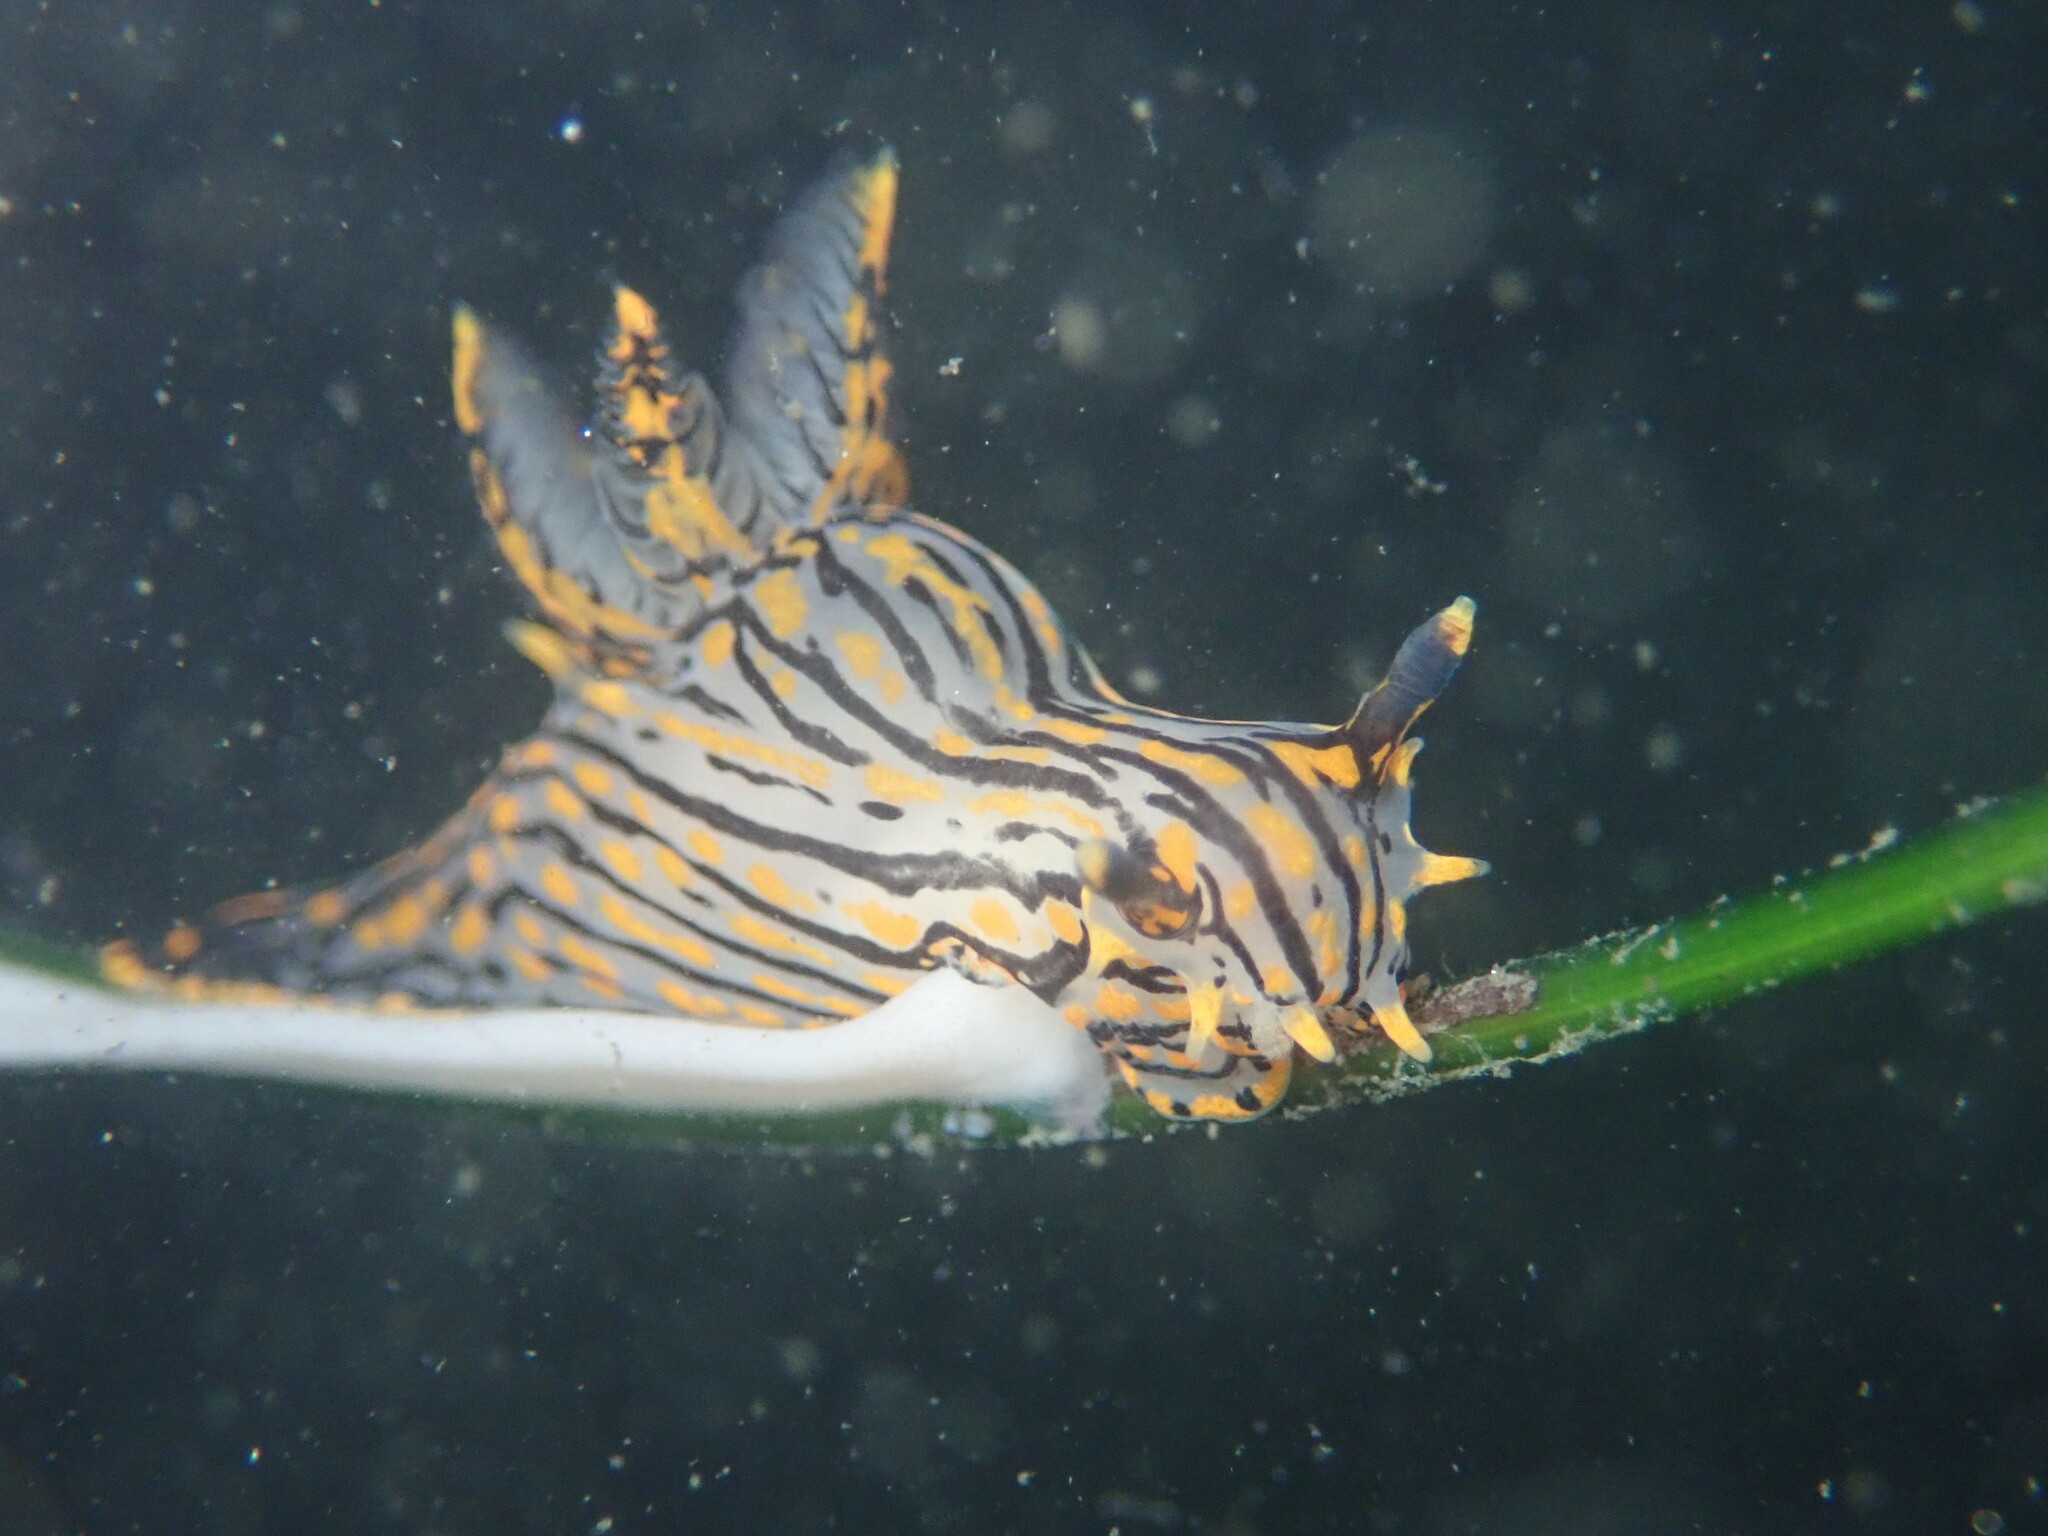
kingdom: Animalia
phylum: Mollusca
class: Gastropoda
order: Nudibranchia
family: Polyceridae
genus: Polycera
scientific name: Polycera atra
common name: Orange-spike polycera
